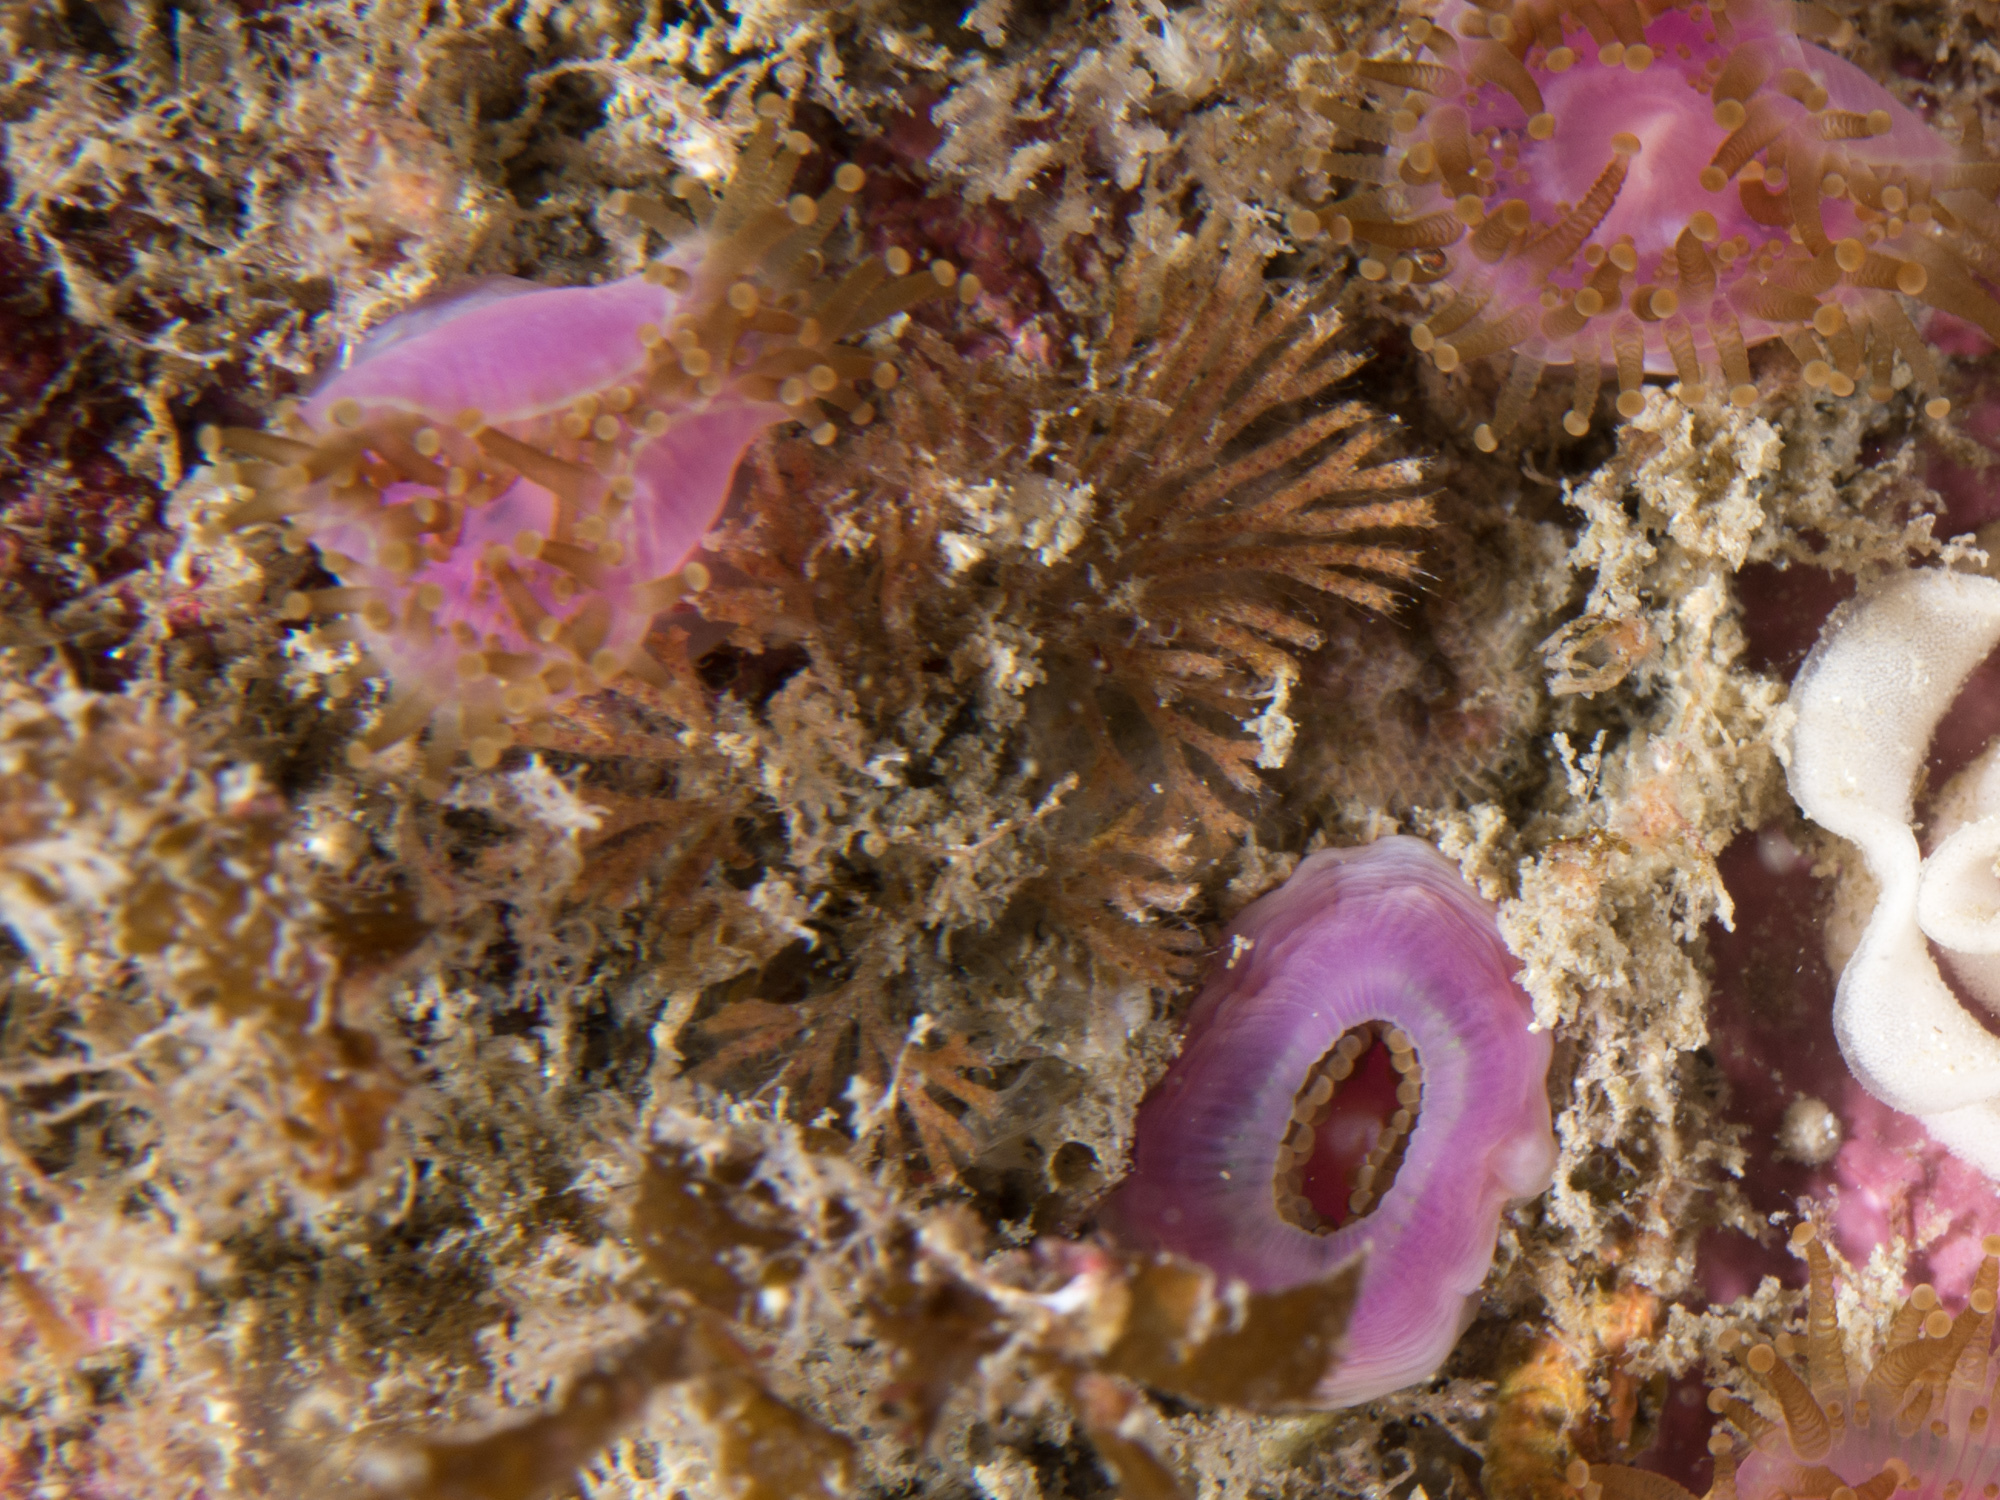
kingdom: Animalia
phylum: Bryozoa
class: Gymnolaemata
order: Cheilostomatida
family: Candidae
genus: Caberea
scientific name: Caberea boryi
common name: Bryozoan
